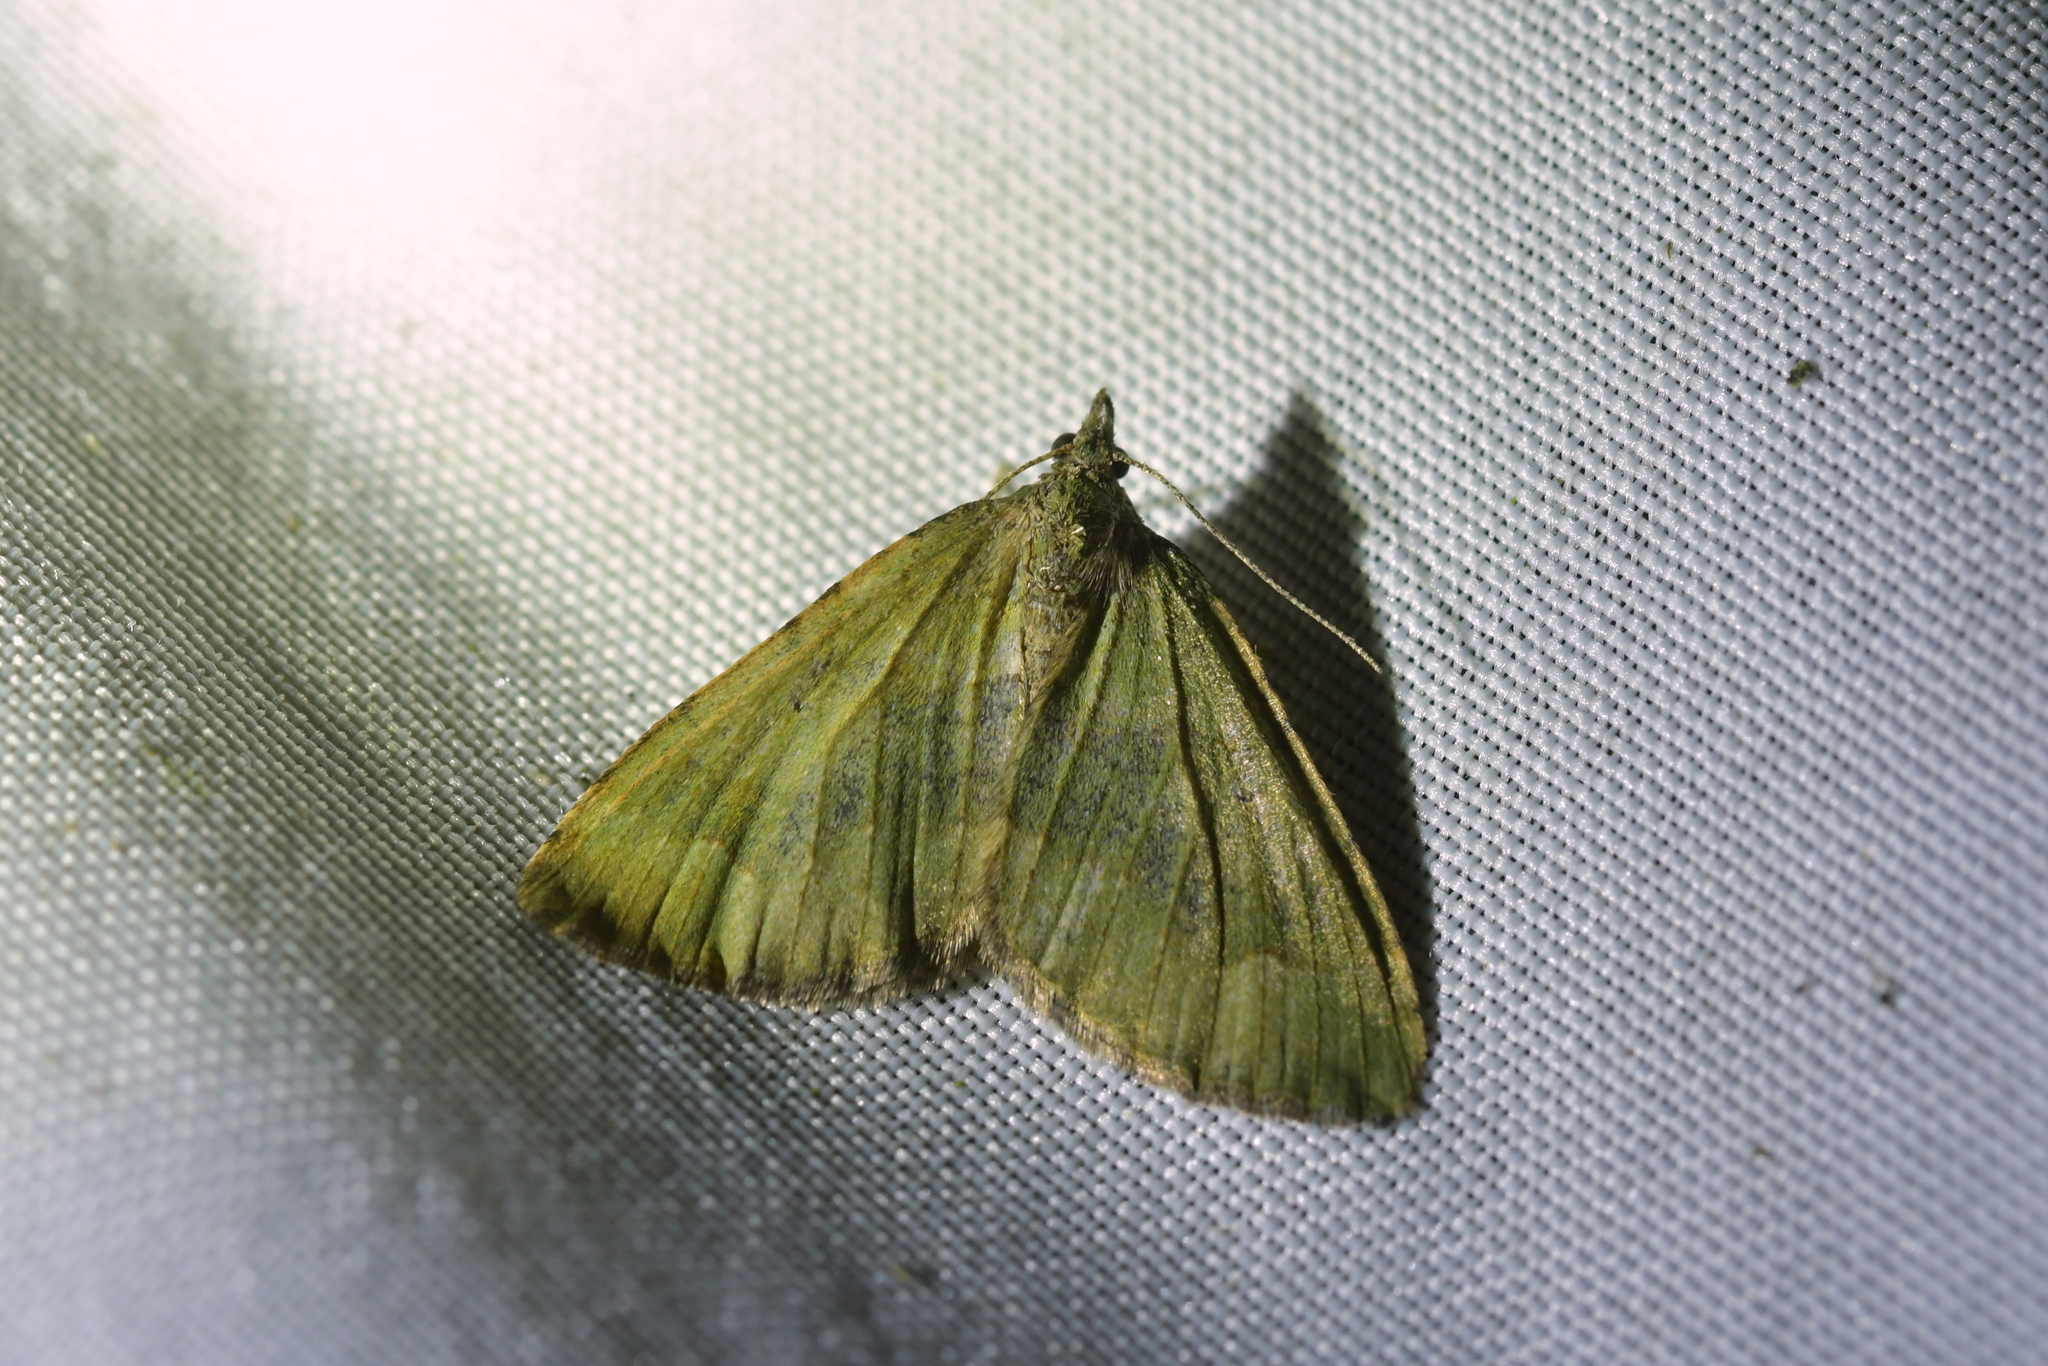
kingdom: Animalia
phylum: Arthropoda
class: Insecta
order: Lepidoptera
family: Geometridae
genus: Epyaxa
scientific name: Epyaxa rosearia
